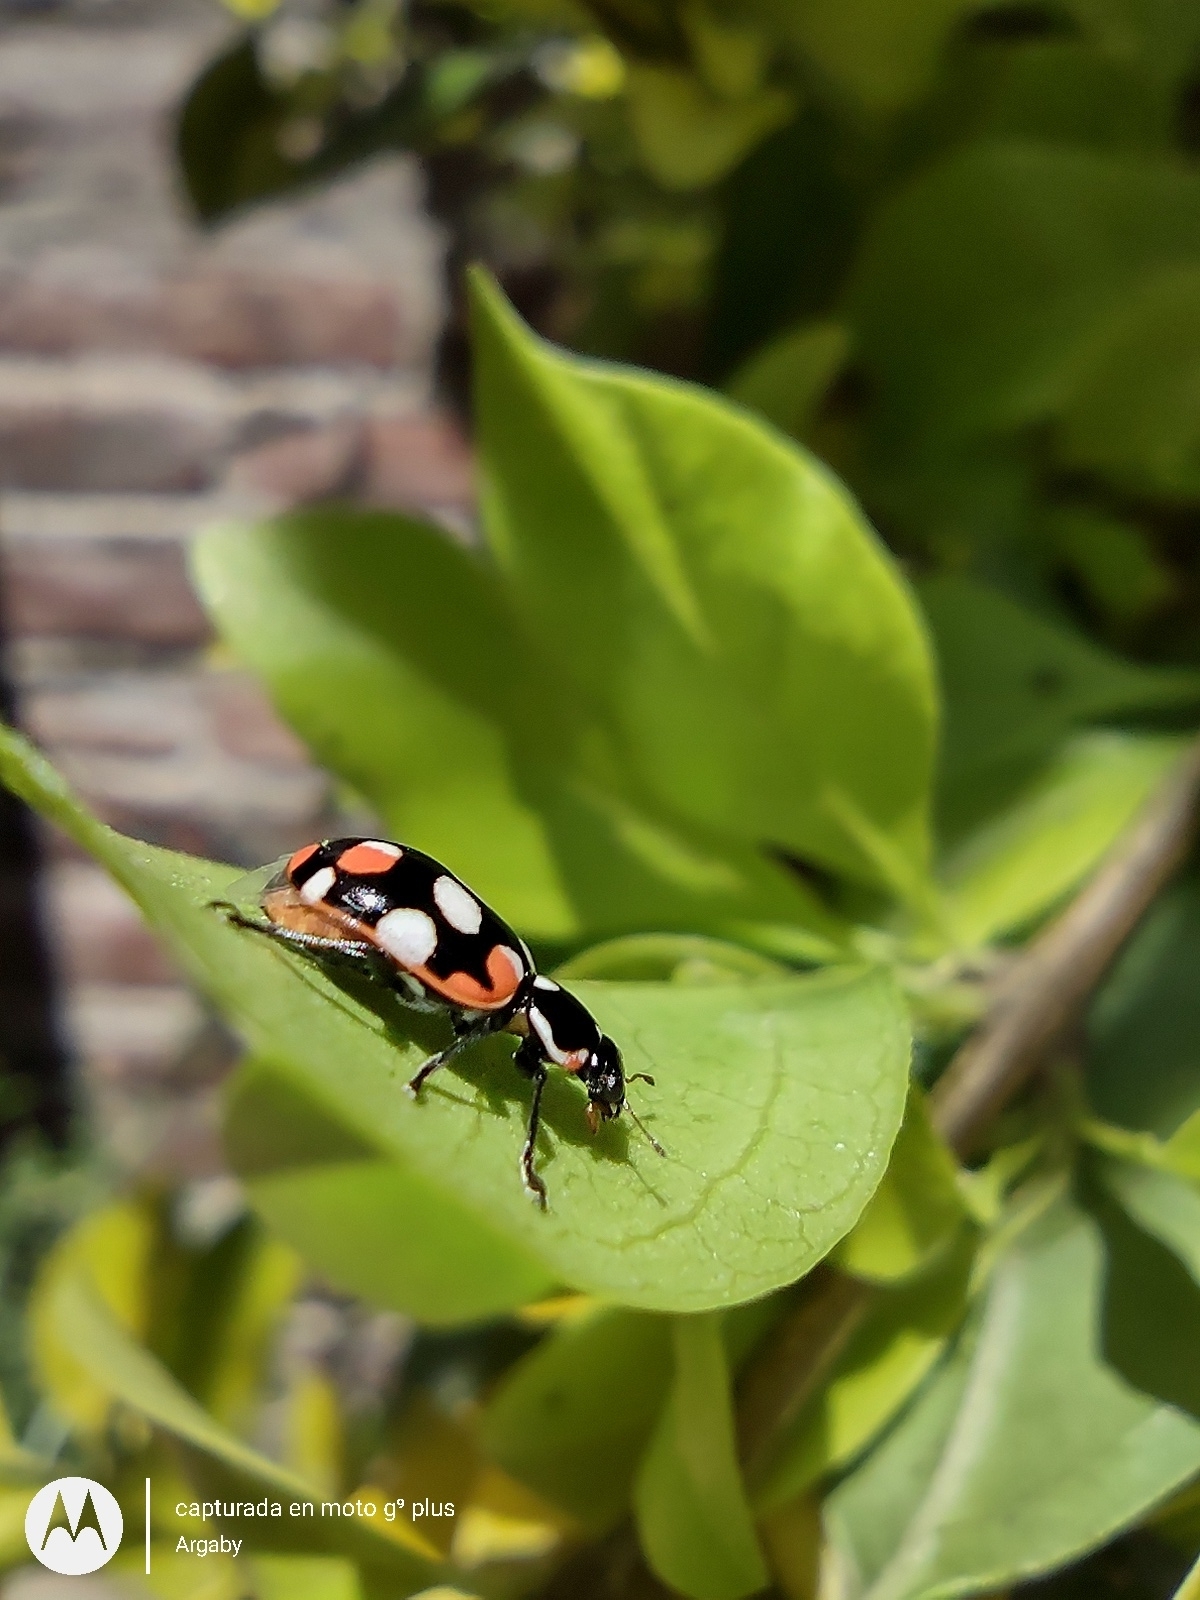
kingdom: Animalia
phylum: Arthropoda
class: Insecta
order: Coleoptera
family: Coccinellidae
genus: Eriopis
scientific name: Eriopis connexa
